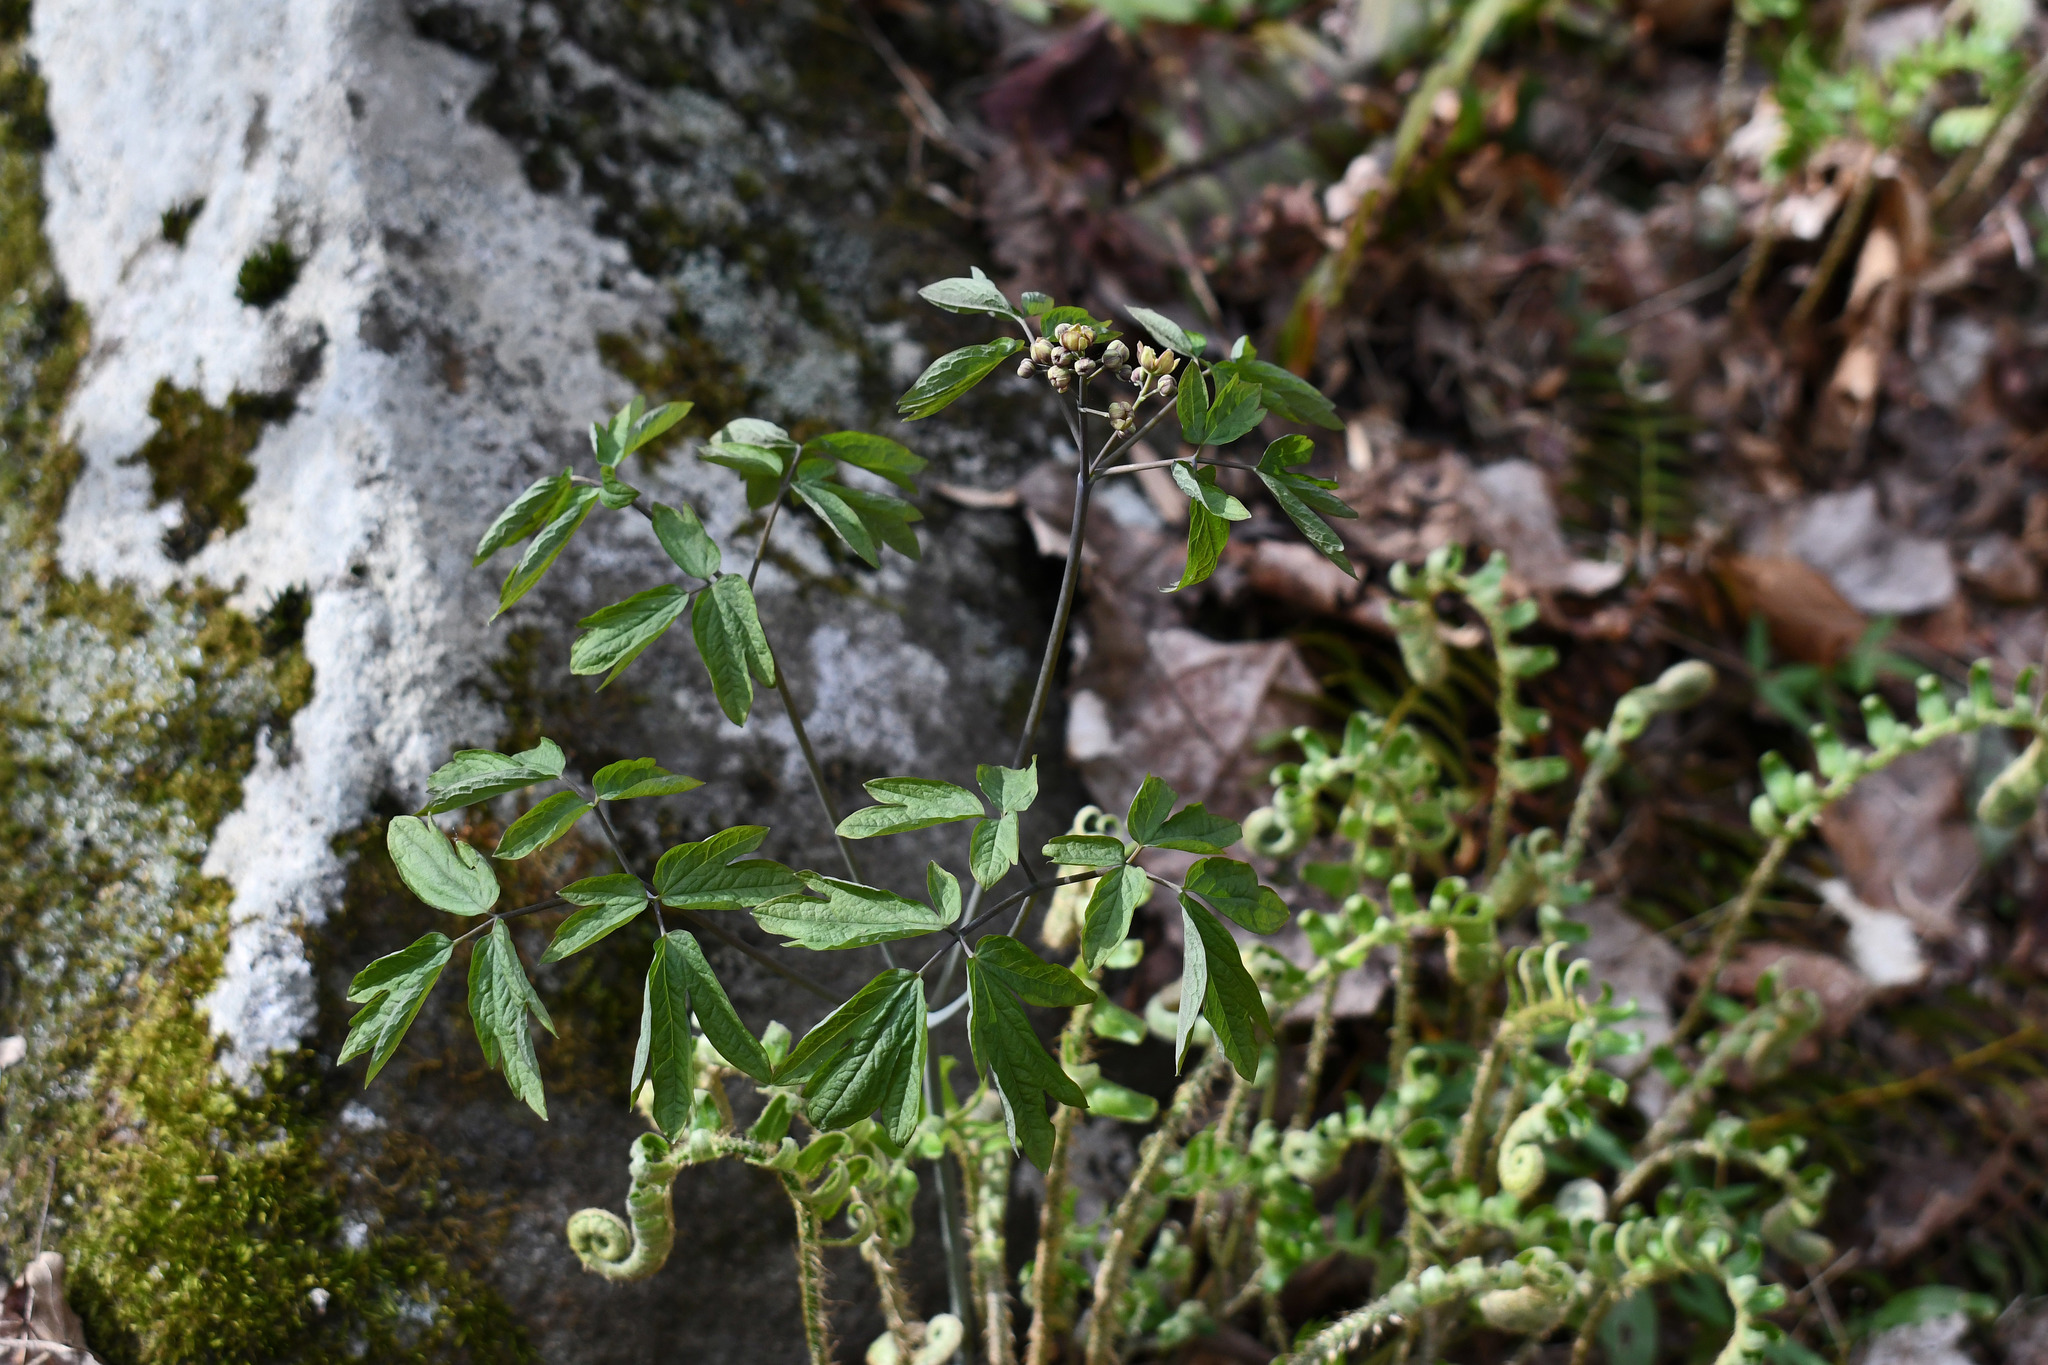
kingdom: Plantae
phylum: Tracheophyta
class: Magnoliopsida
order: Ranunculales
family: Berberidaceae
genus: Caulophyllum
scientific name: Caulophyllum thalictroides
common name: Blue cohosh
